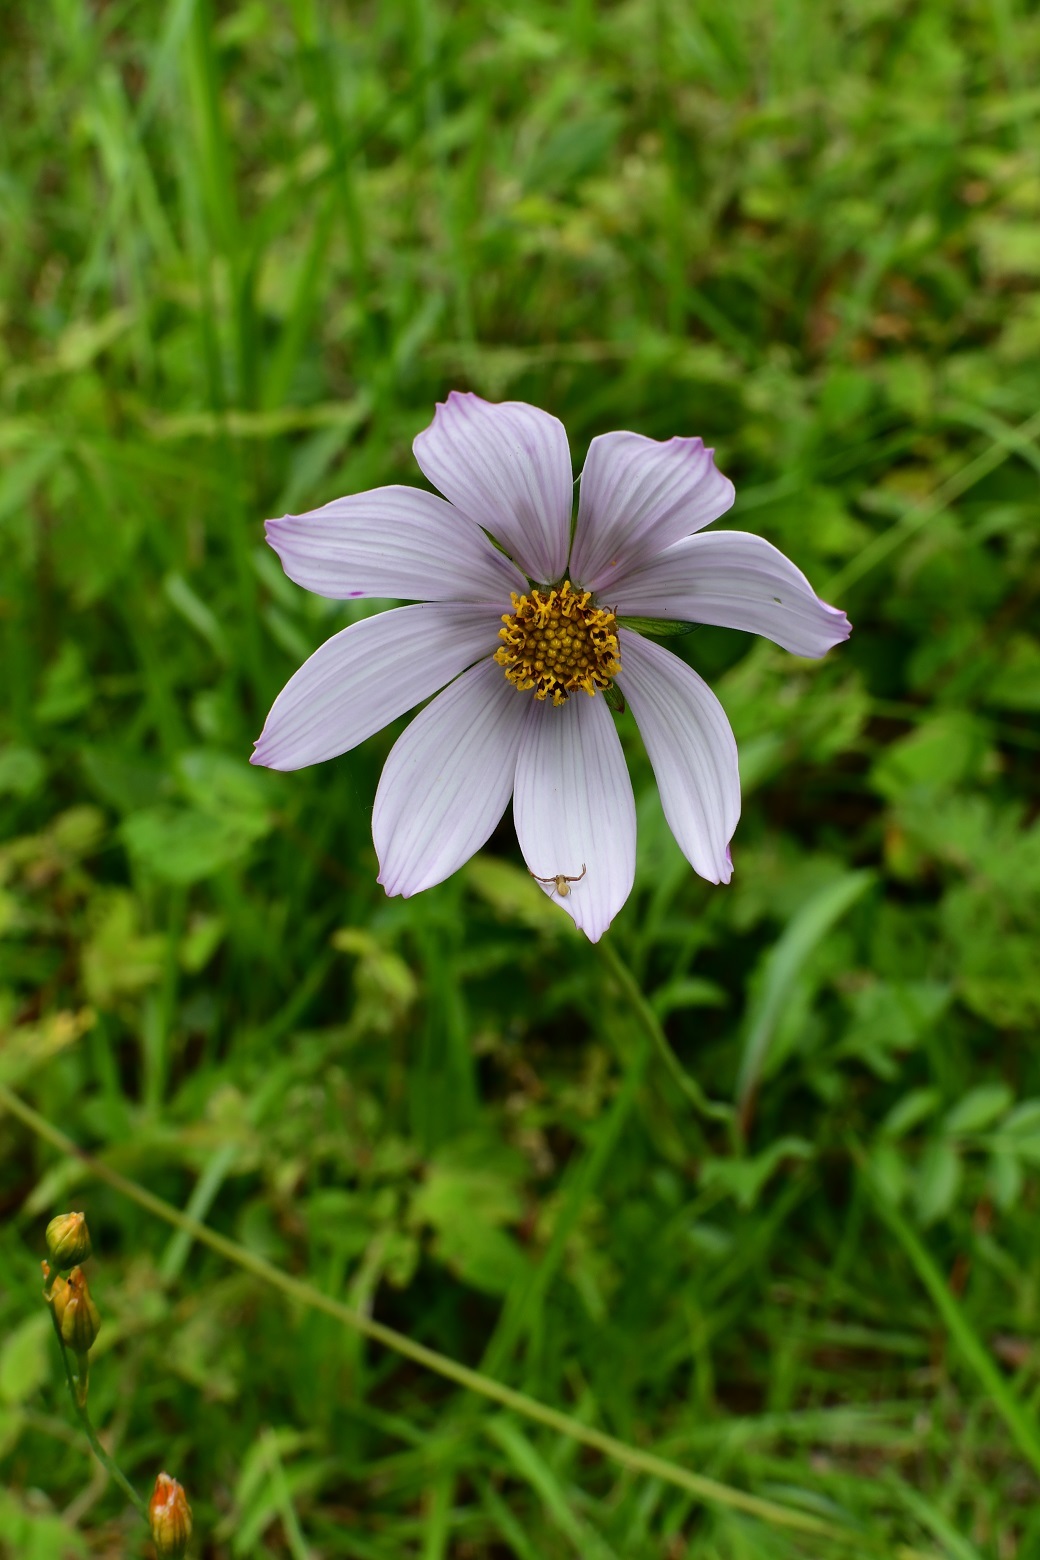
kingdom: Plantae
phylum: Tracheophyta
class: Magnoliopsida
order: Asterales
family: Asteraceae
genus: Cosmos
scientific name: Cosmos diversifolius
